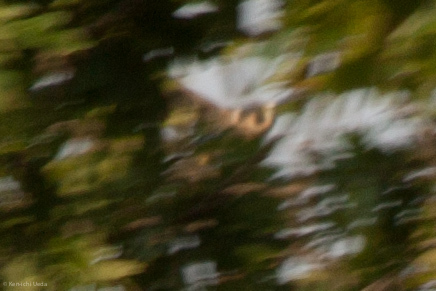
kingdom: Animalia
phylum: Chordata
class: Aves
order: Falconiformes
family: Falconidae
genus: Falco
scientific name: Falco peregrinus
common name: Peregrine falcon
